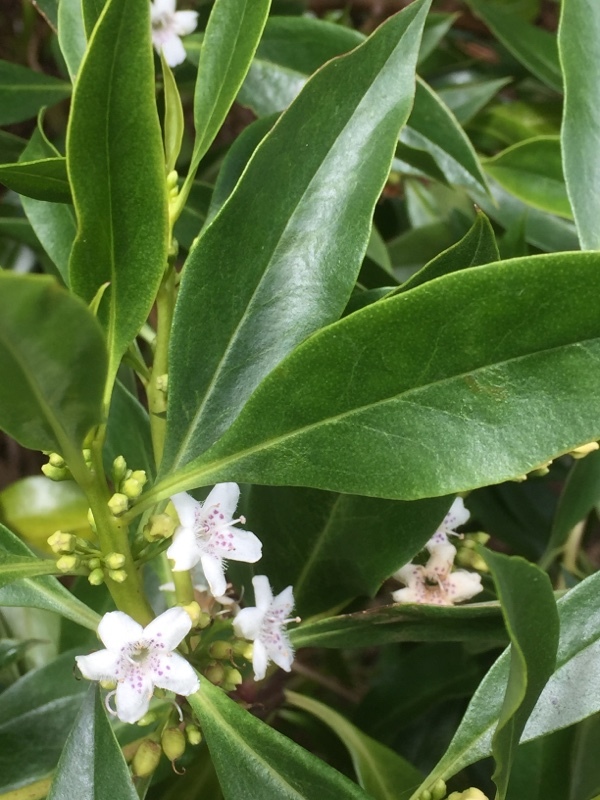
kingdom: Plantae
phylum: Tracheophyta
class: Magnoliopsida
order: Lamiales
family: Scrophulariaceae
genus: Myoporum
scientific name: Myoporum laetum
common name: Ngaio tree
